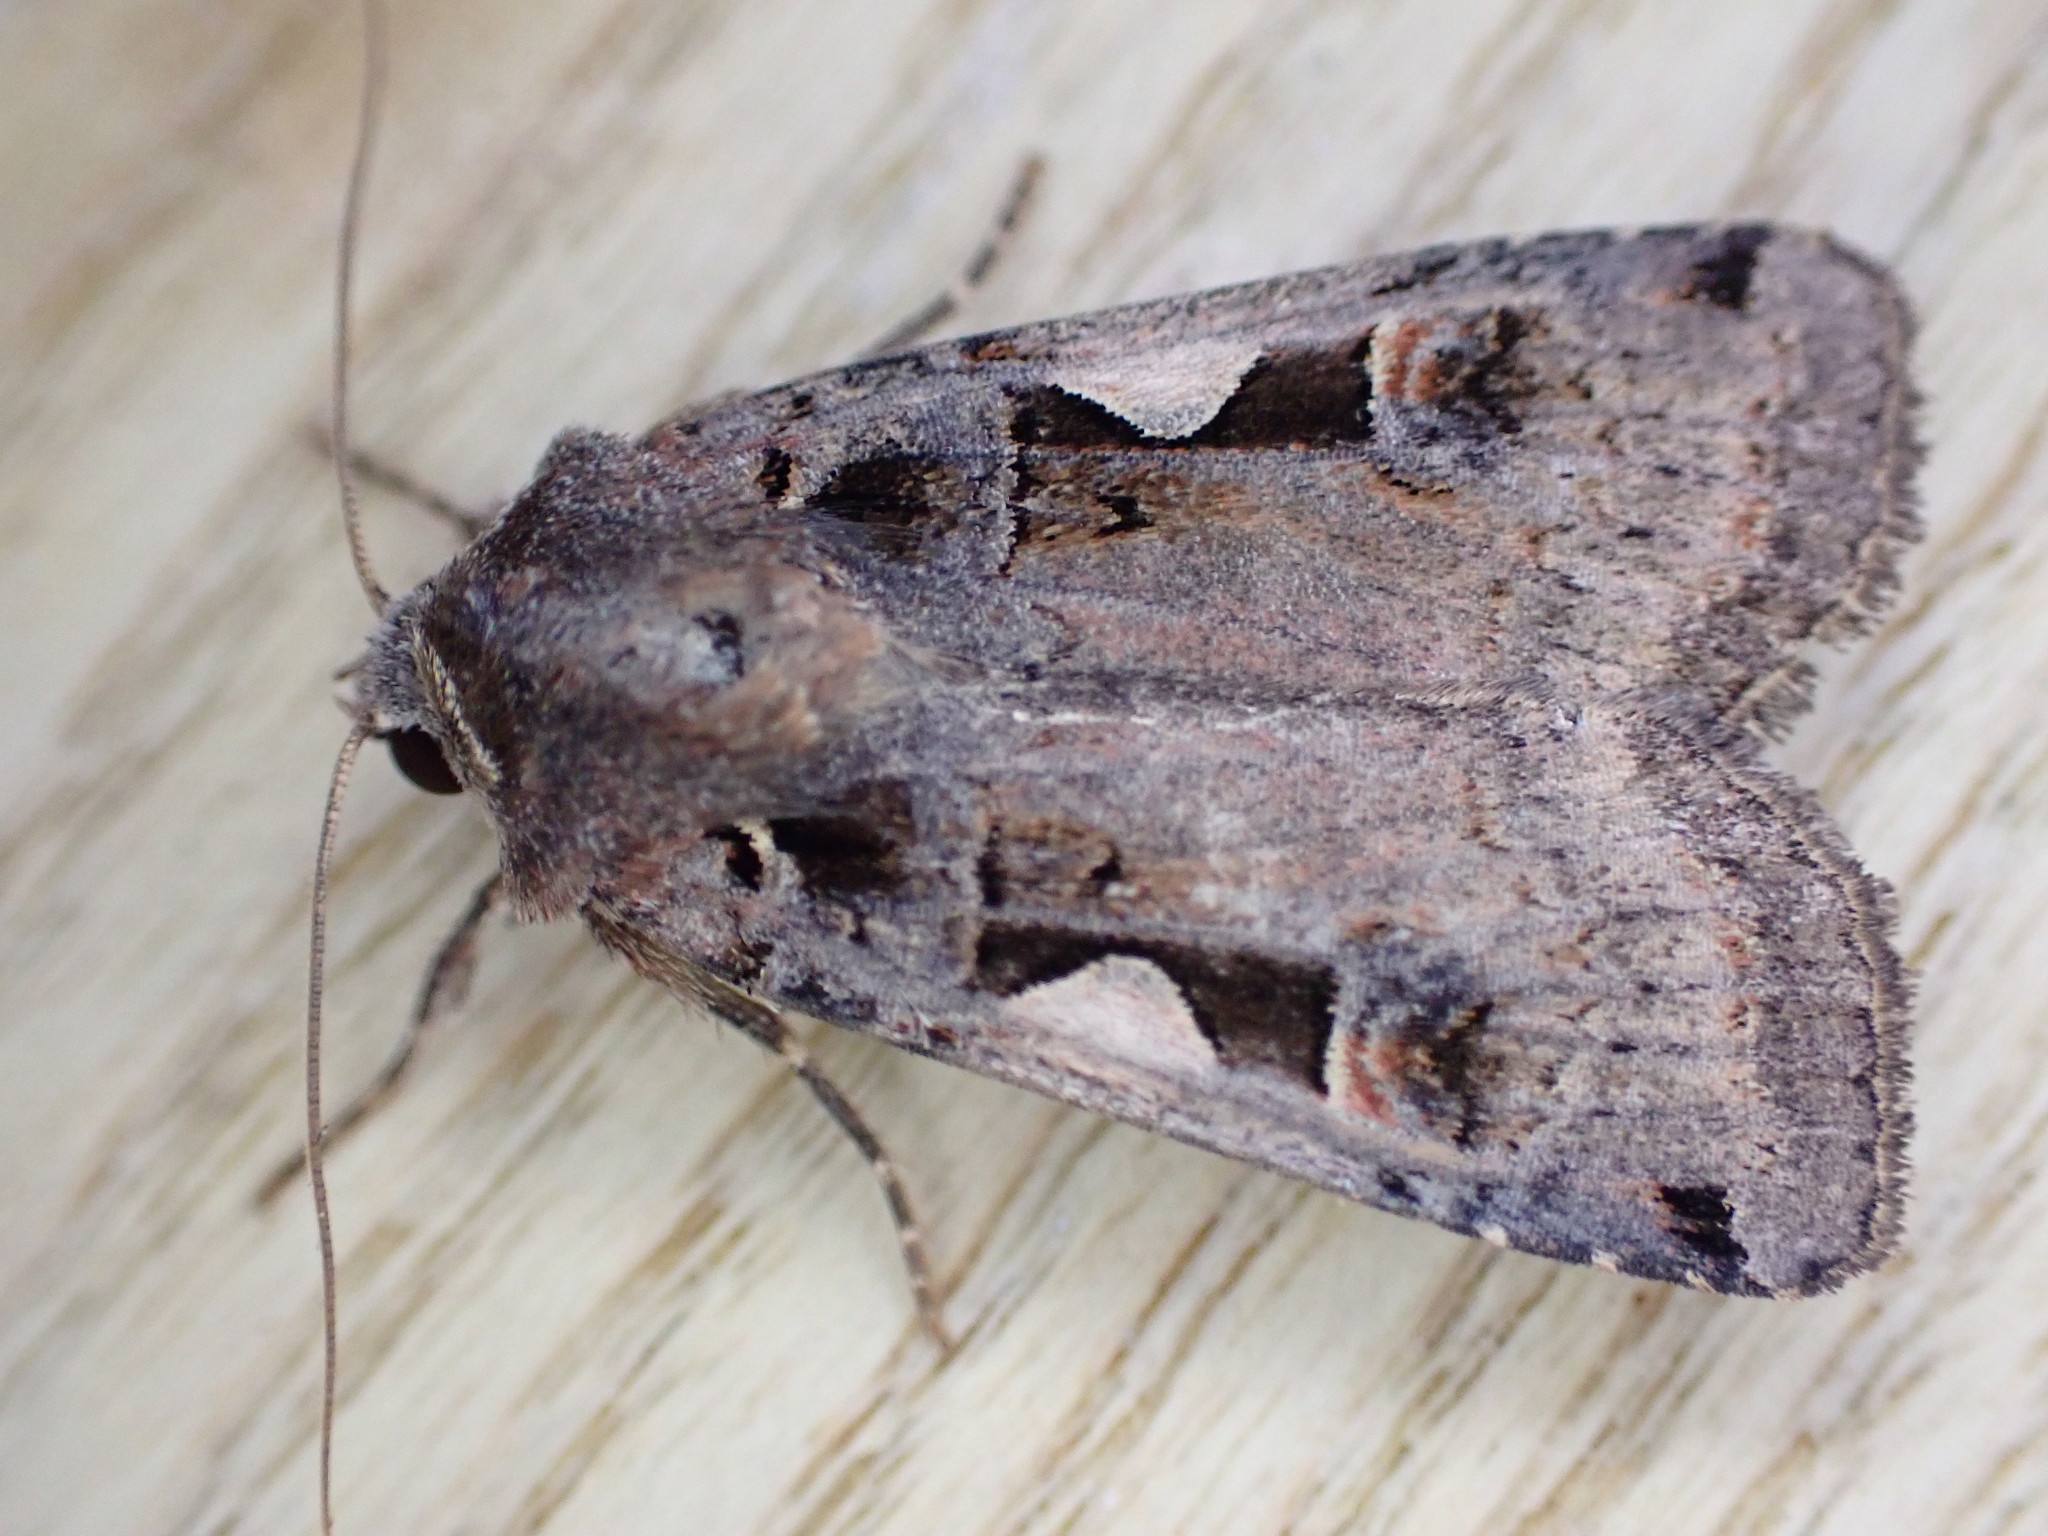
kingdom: Animalia
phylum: Arthropoda
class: Insecta
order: Lepidoptera
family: Noctuidae
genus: Xestia
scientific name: Xestia c-nigrum
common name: Setaceous hebrew character
